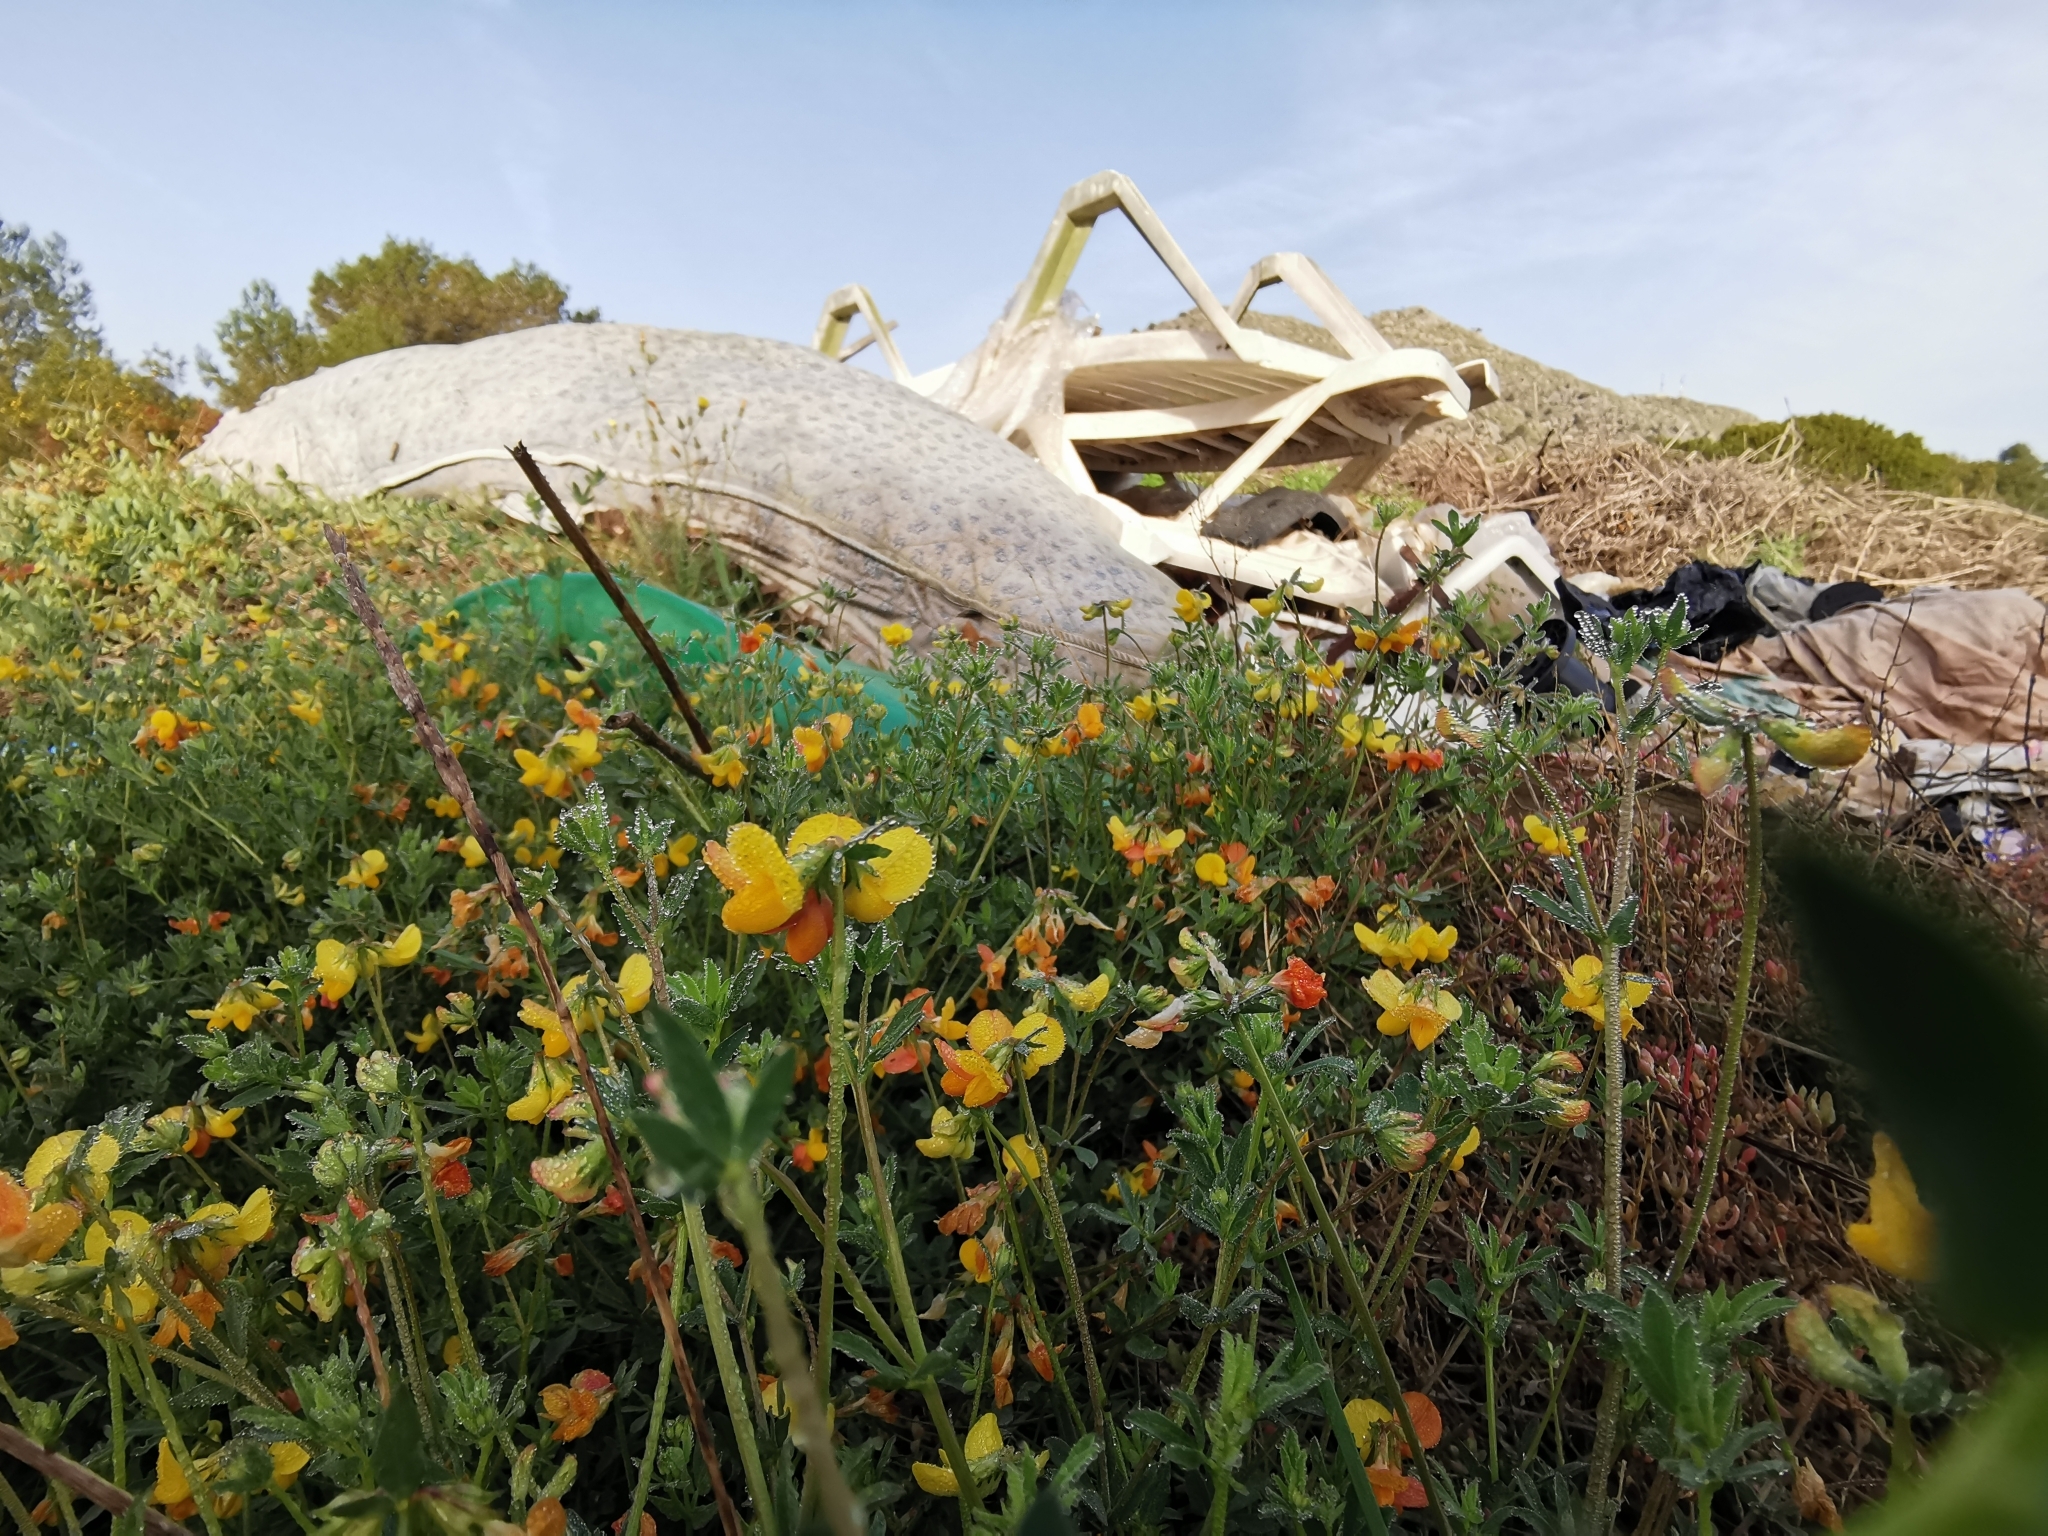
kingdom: Plantae
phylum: Tracheophyta
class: Magnoliopsida
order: Fabales
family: Fabaceae
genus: Lotus
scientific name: Lotus corniculatus
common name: Common bird's-foot-trefoil
